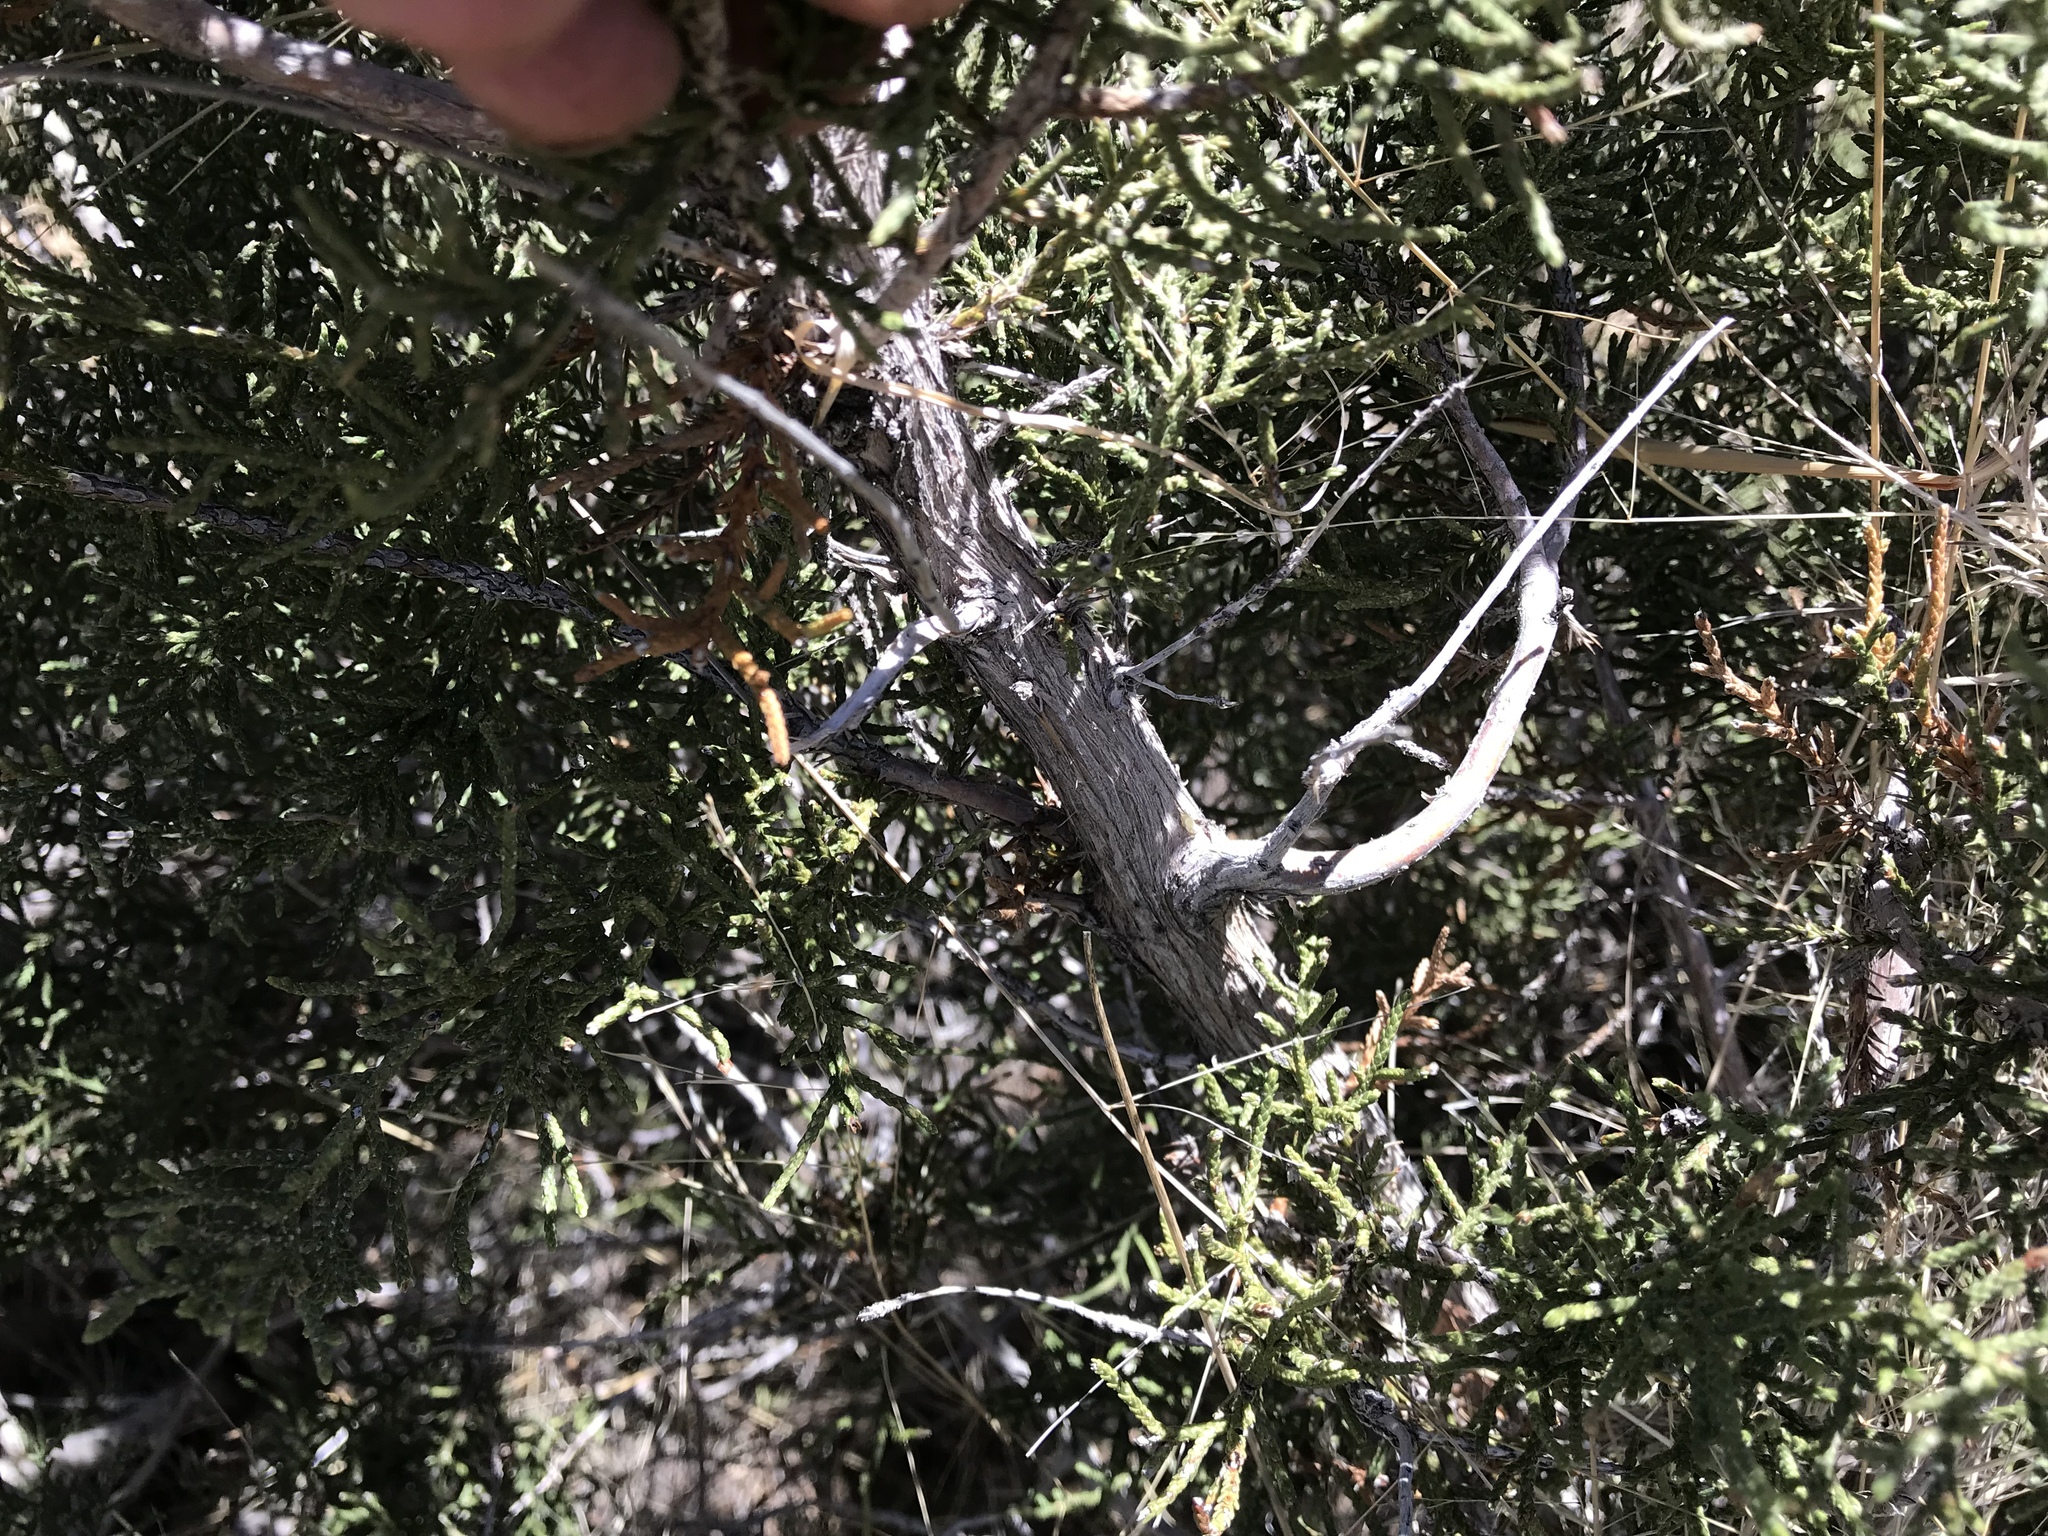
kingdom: Plantae
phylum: Tracheophyta
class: Pinopsida
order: Pinales
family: Cupressaceae
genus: Juniperus
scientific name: Juniperus monosperma
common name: One-seed juniper
